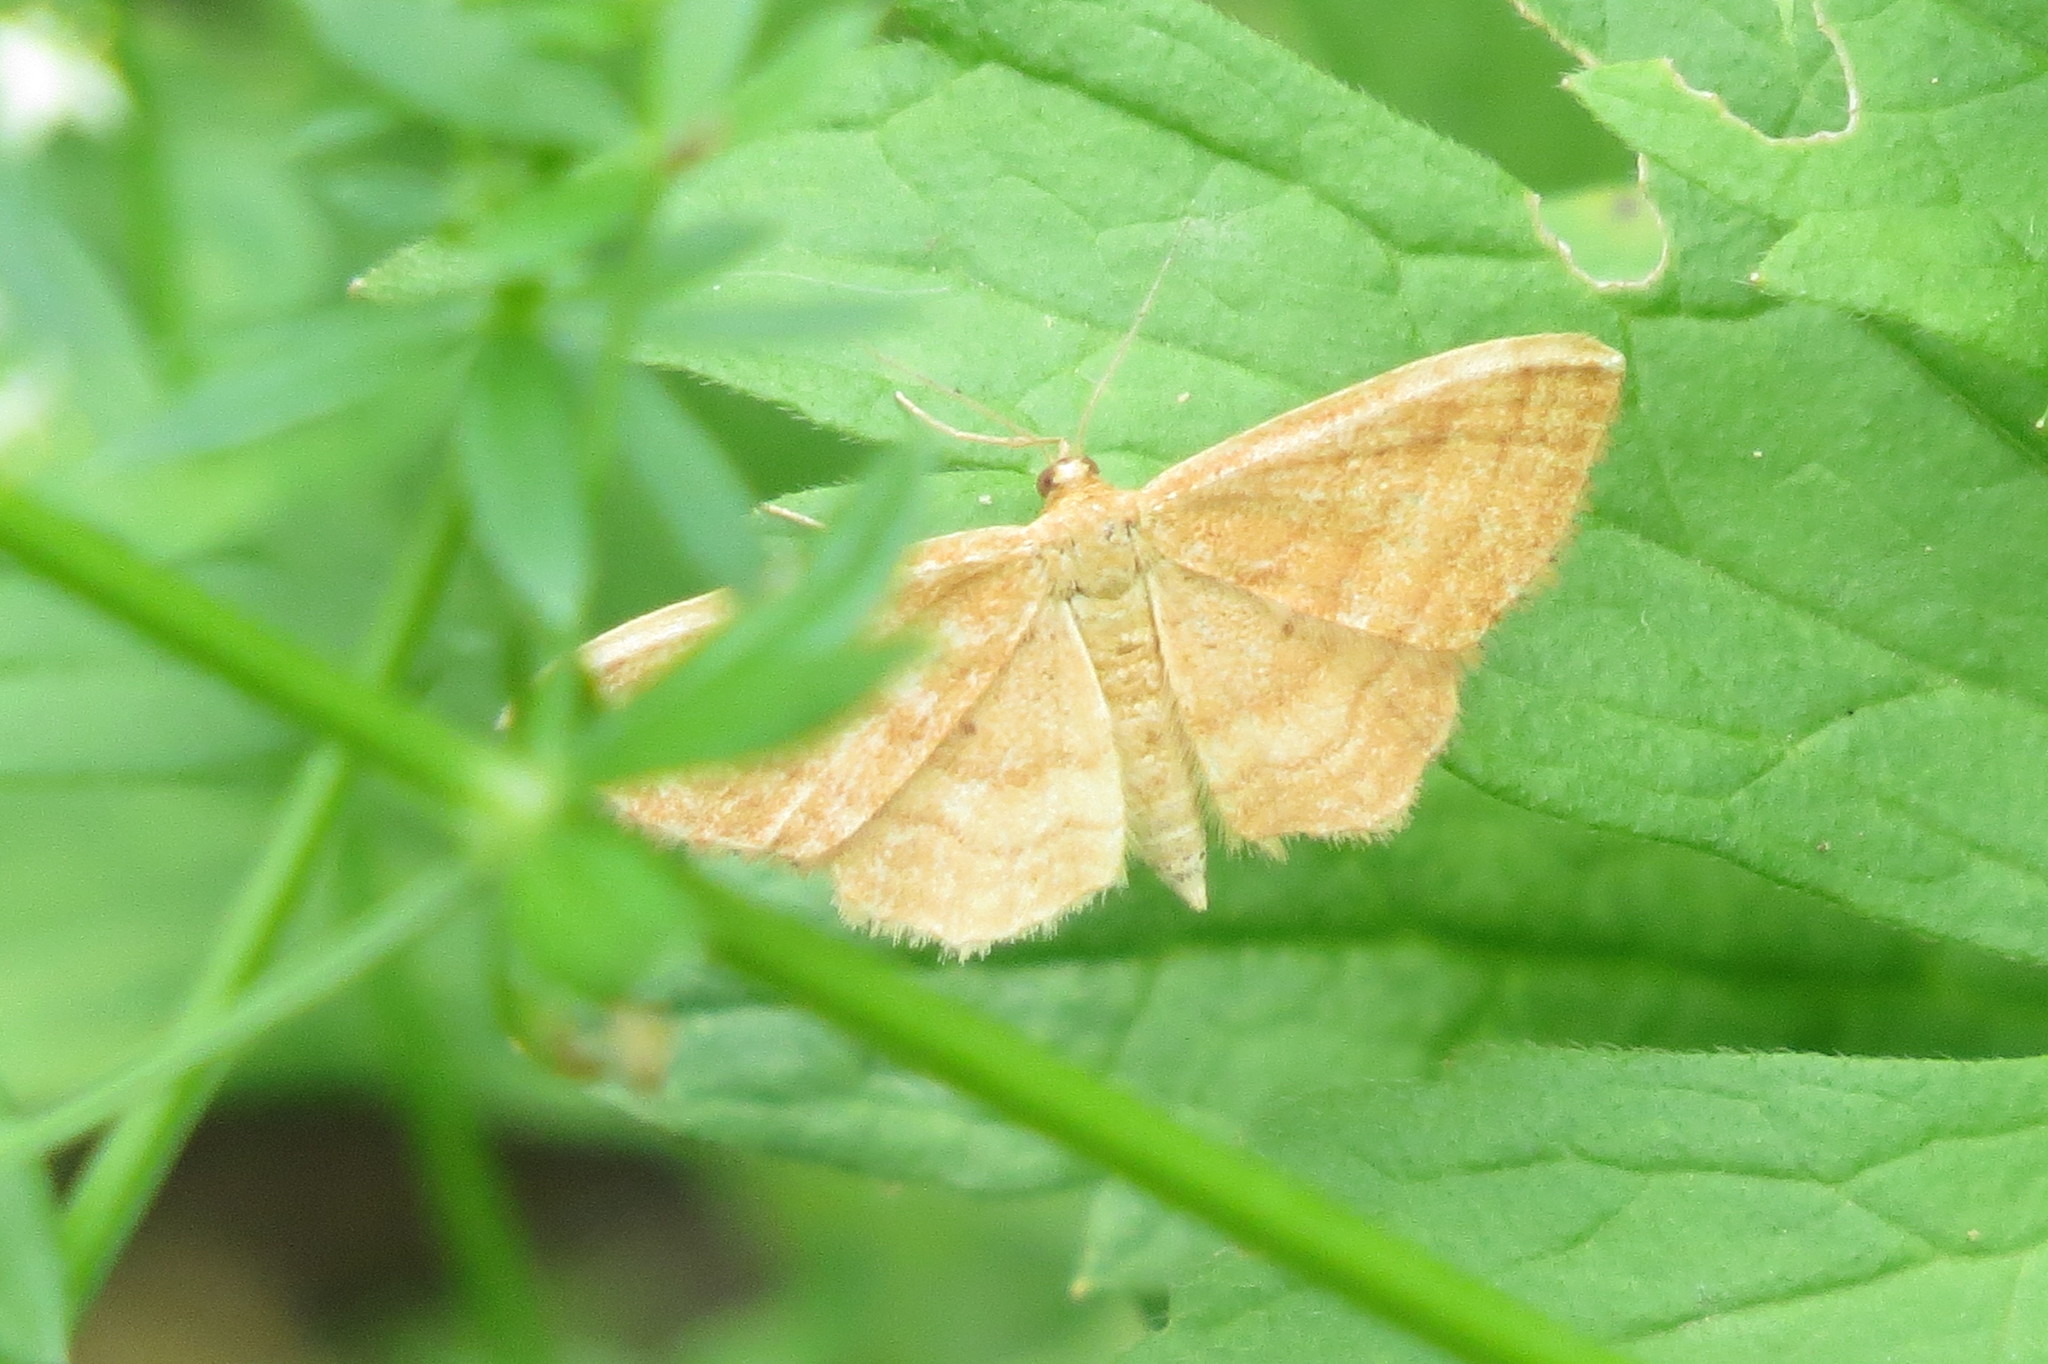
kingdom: Animalia
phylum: Arthropoda
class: Insecta
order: Lepidoptera
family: Geometridae
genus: Idaea
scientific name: Idaea ochrata
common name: Bright wave
